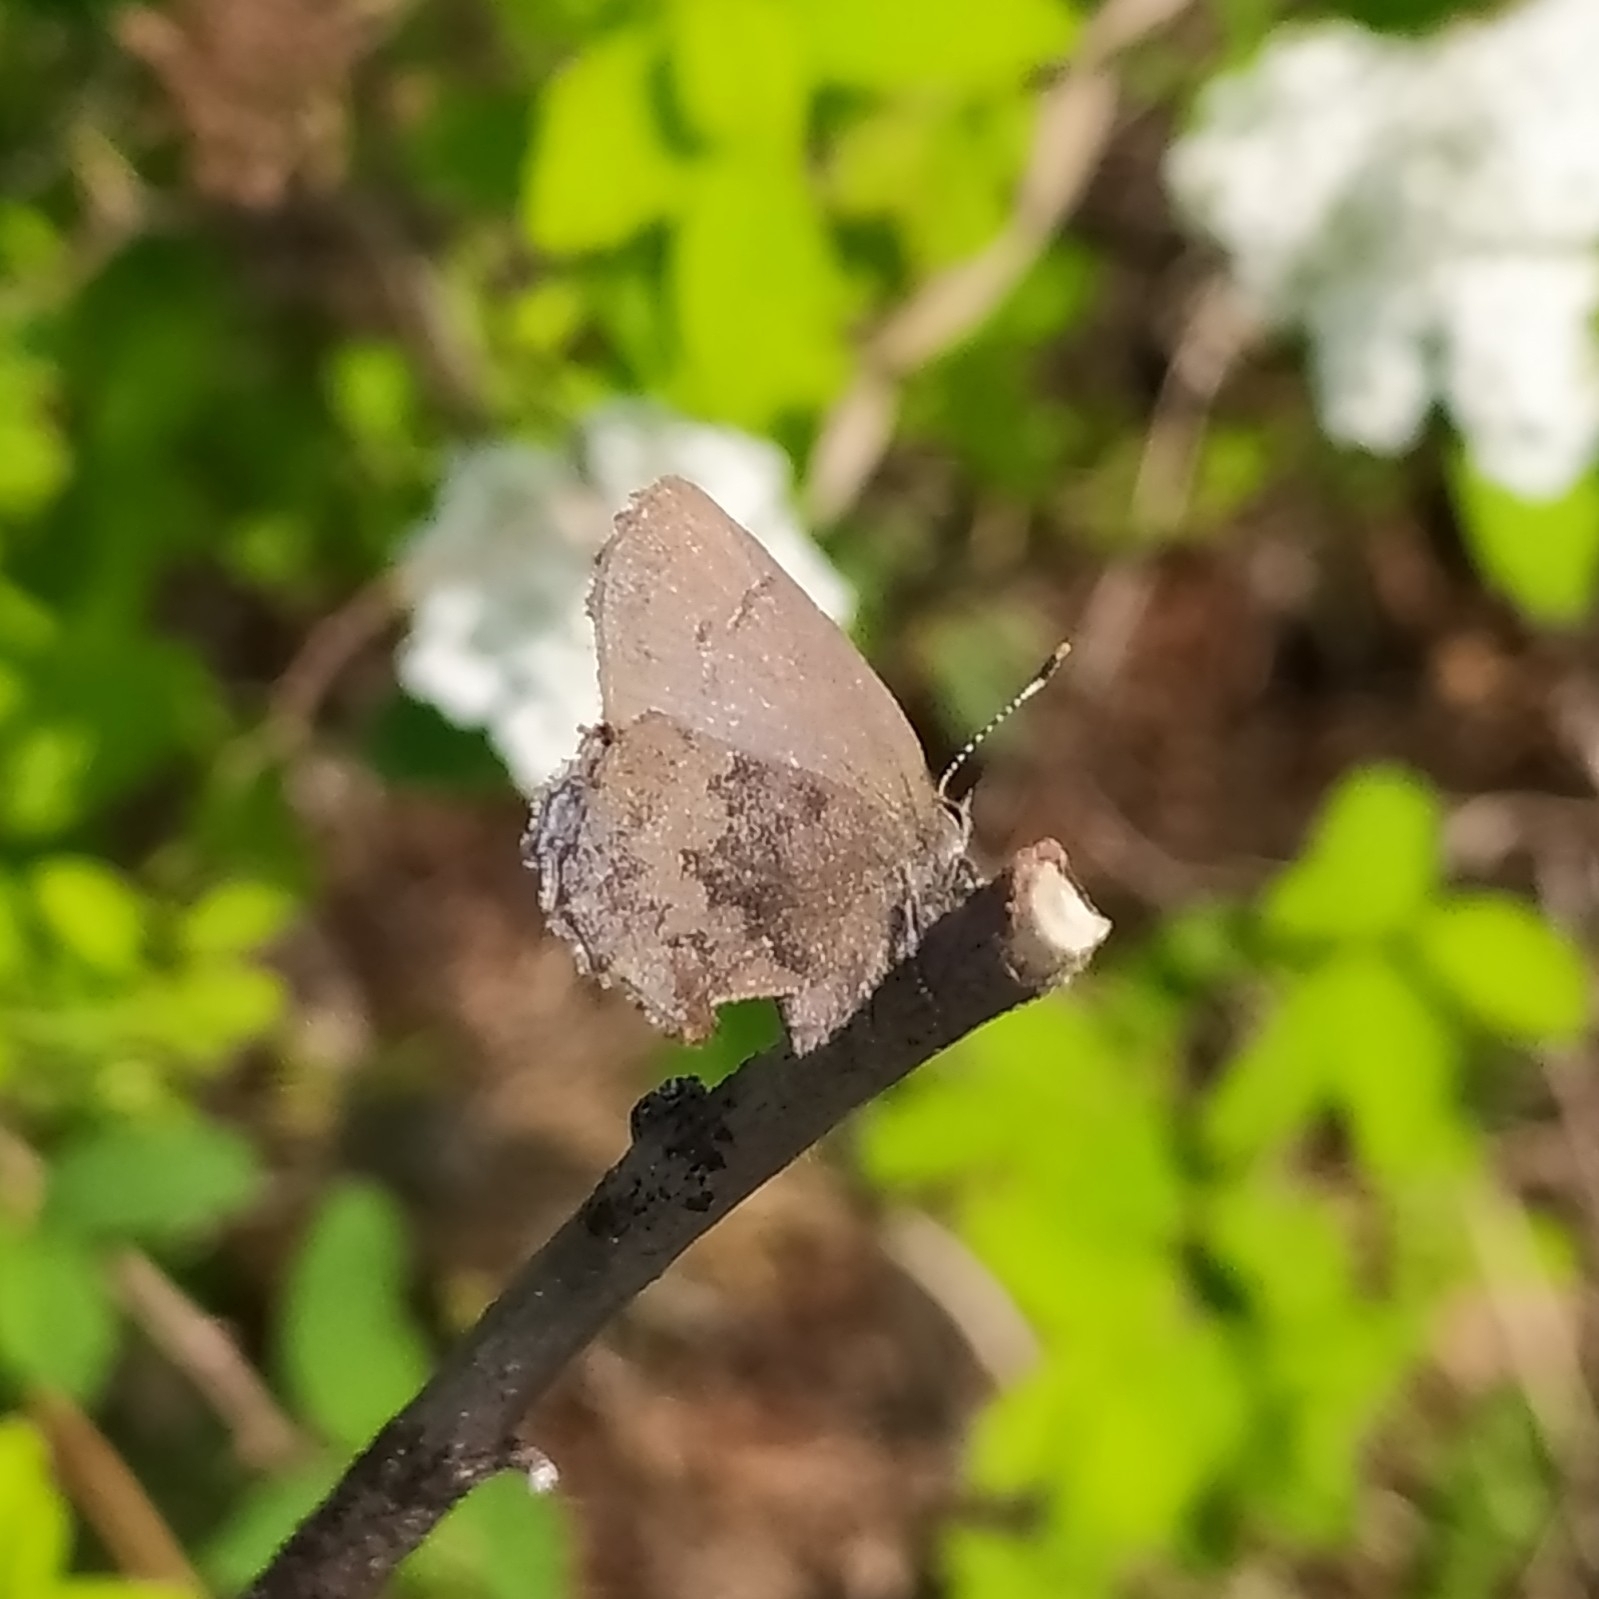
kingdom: Animalia
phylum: Arthropoda
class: Insecta
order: Lepidoptera
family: Lycaenidae
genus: Ginzia
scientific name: Ginzia Ahlbergia frivaldszkyi
